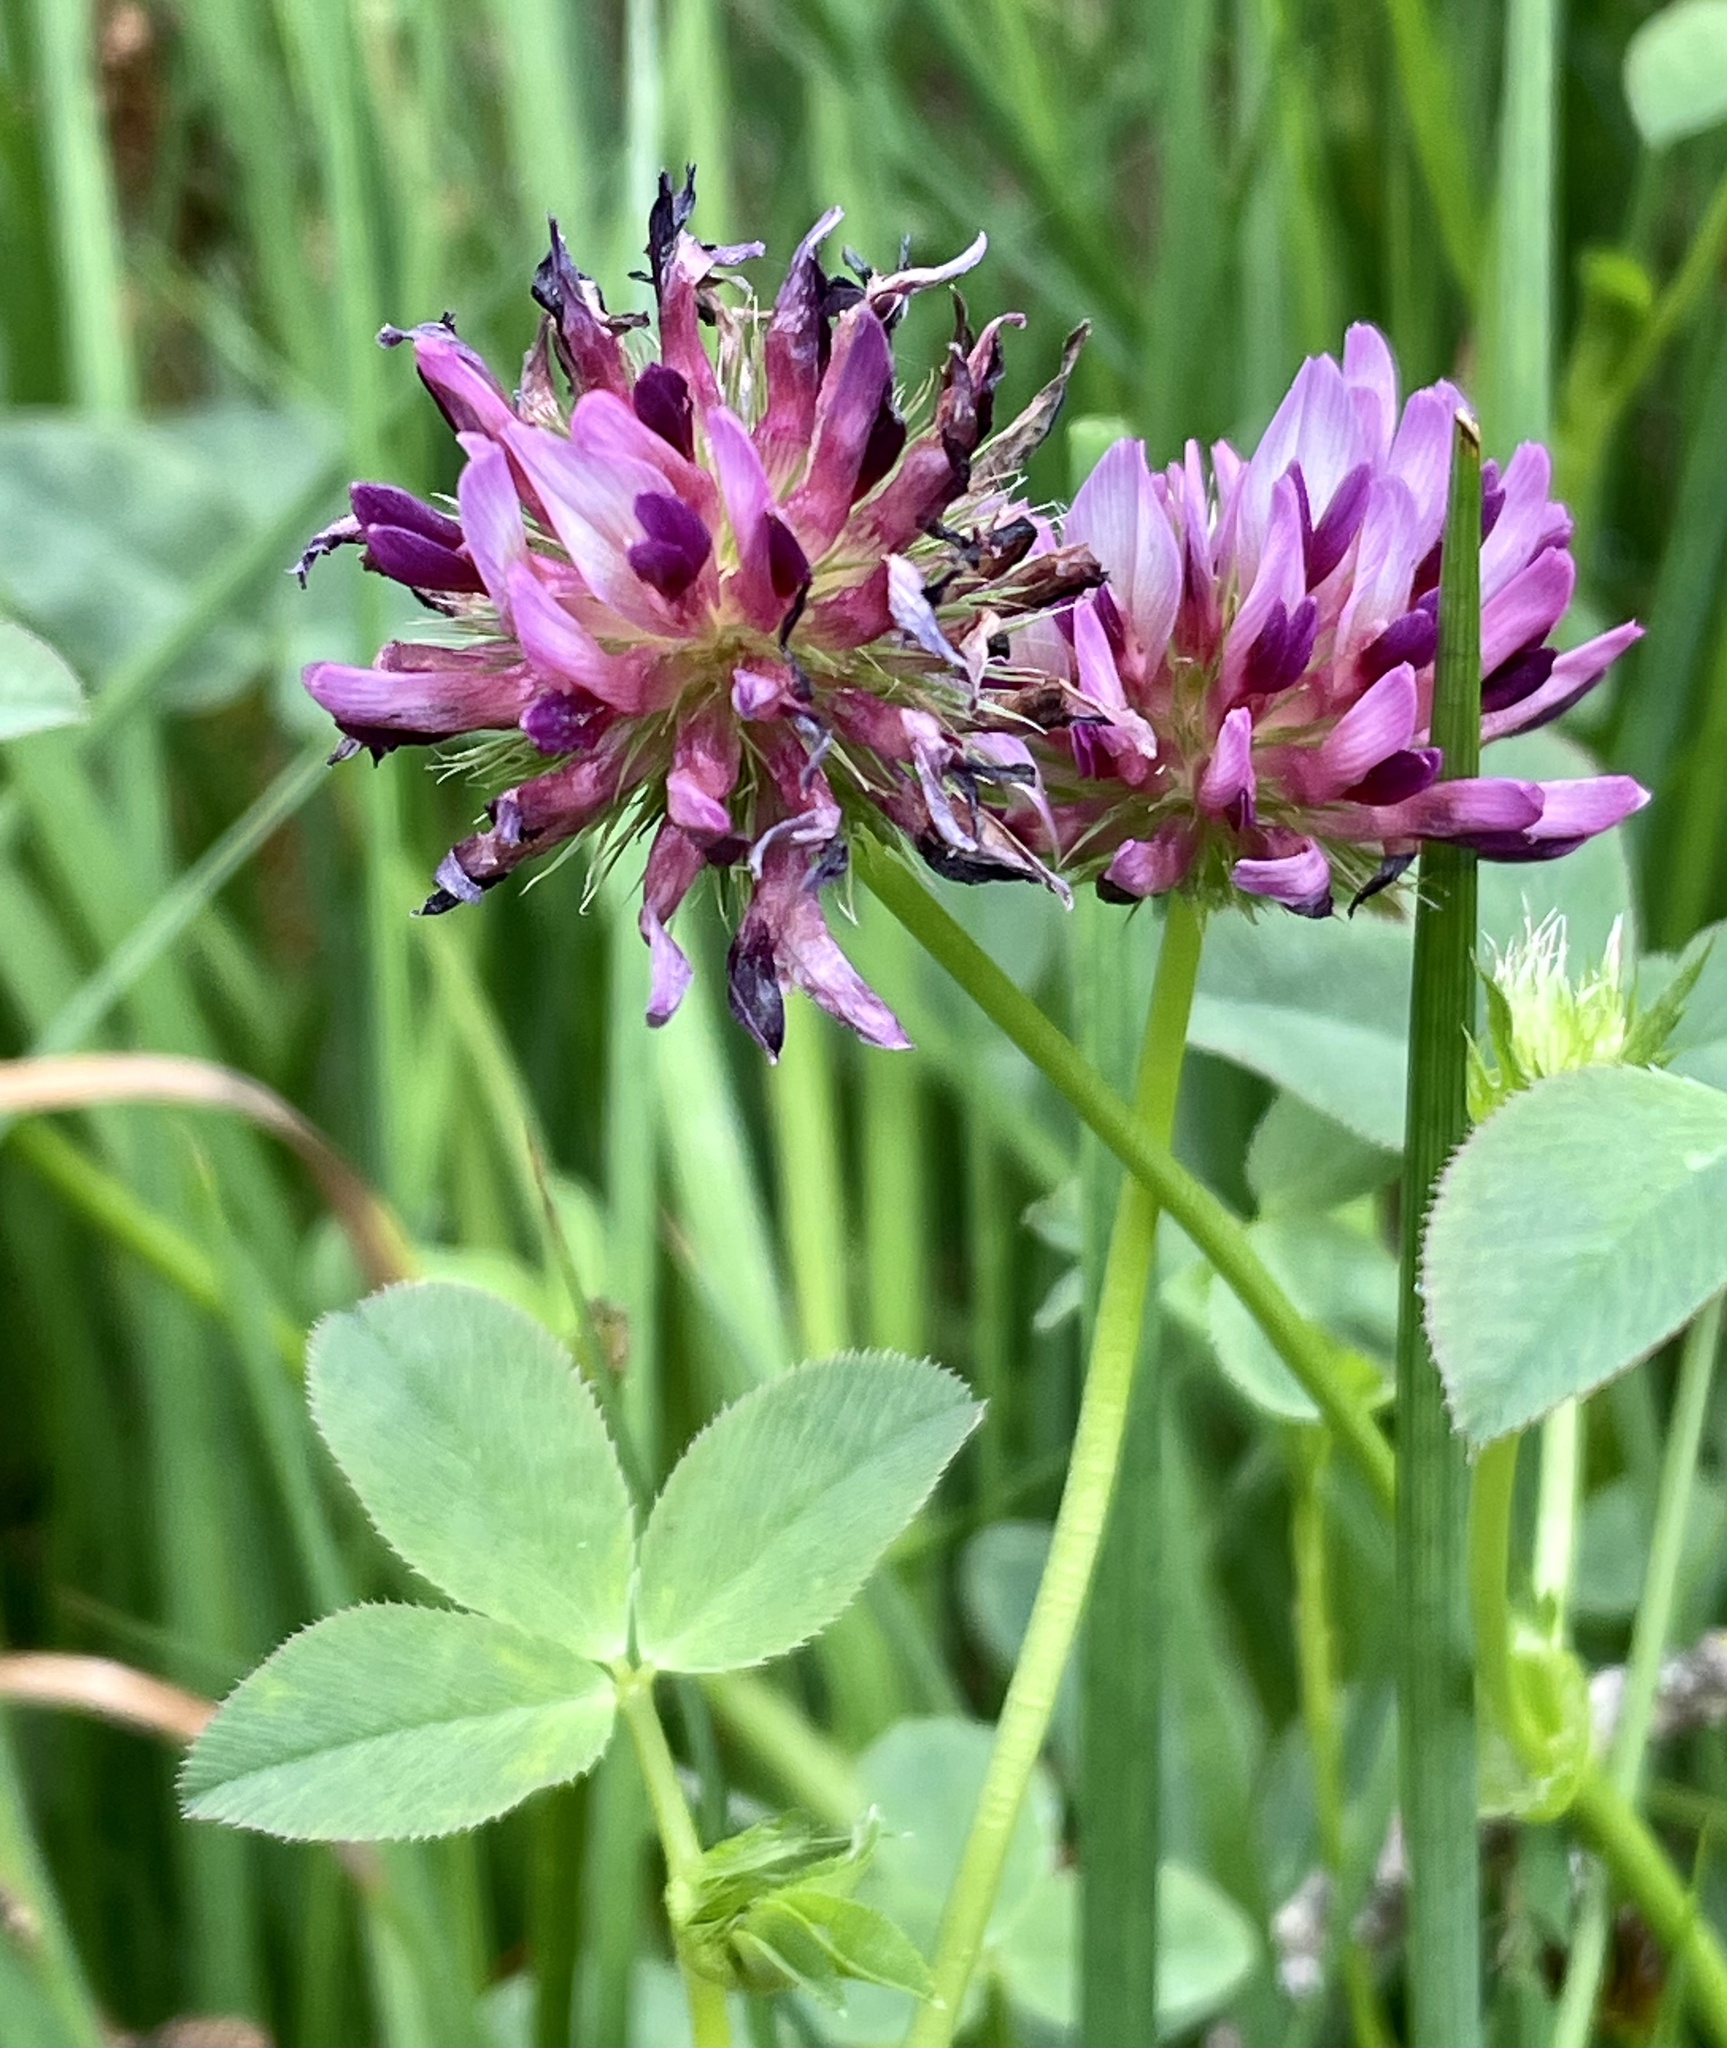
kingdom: Plantae
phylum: Tracheophyta
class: Magnoliopsida
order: Fabales
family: Fabaceae
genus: Trifolium
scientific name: Trifolium wormskioldii
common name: Springbank clover
